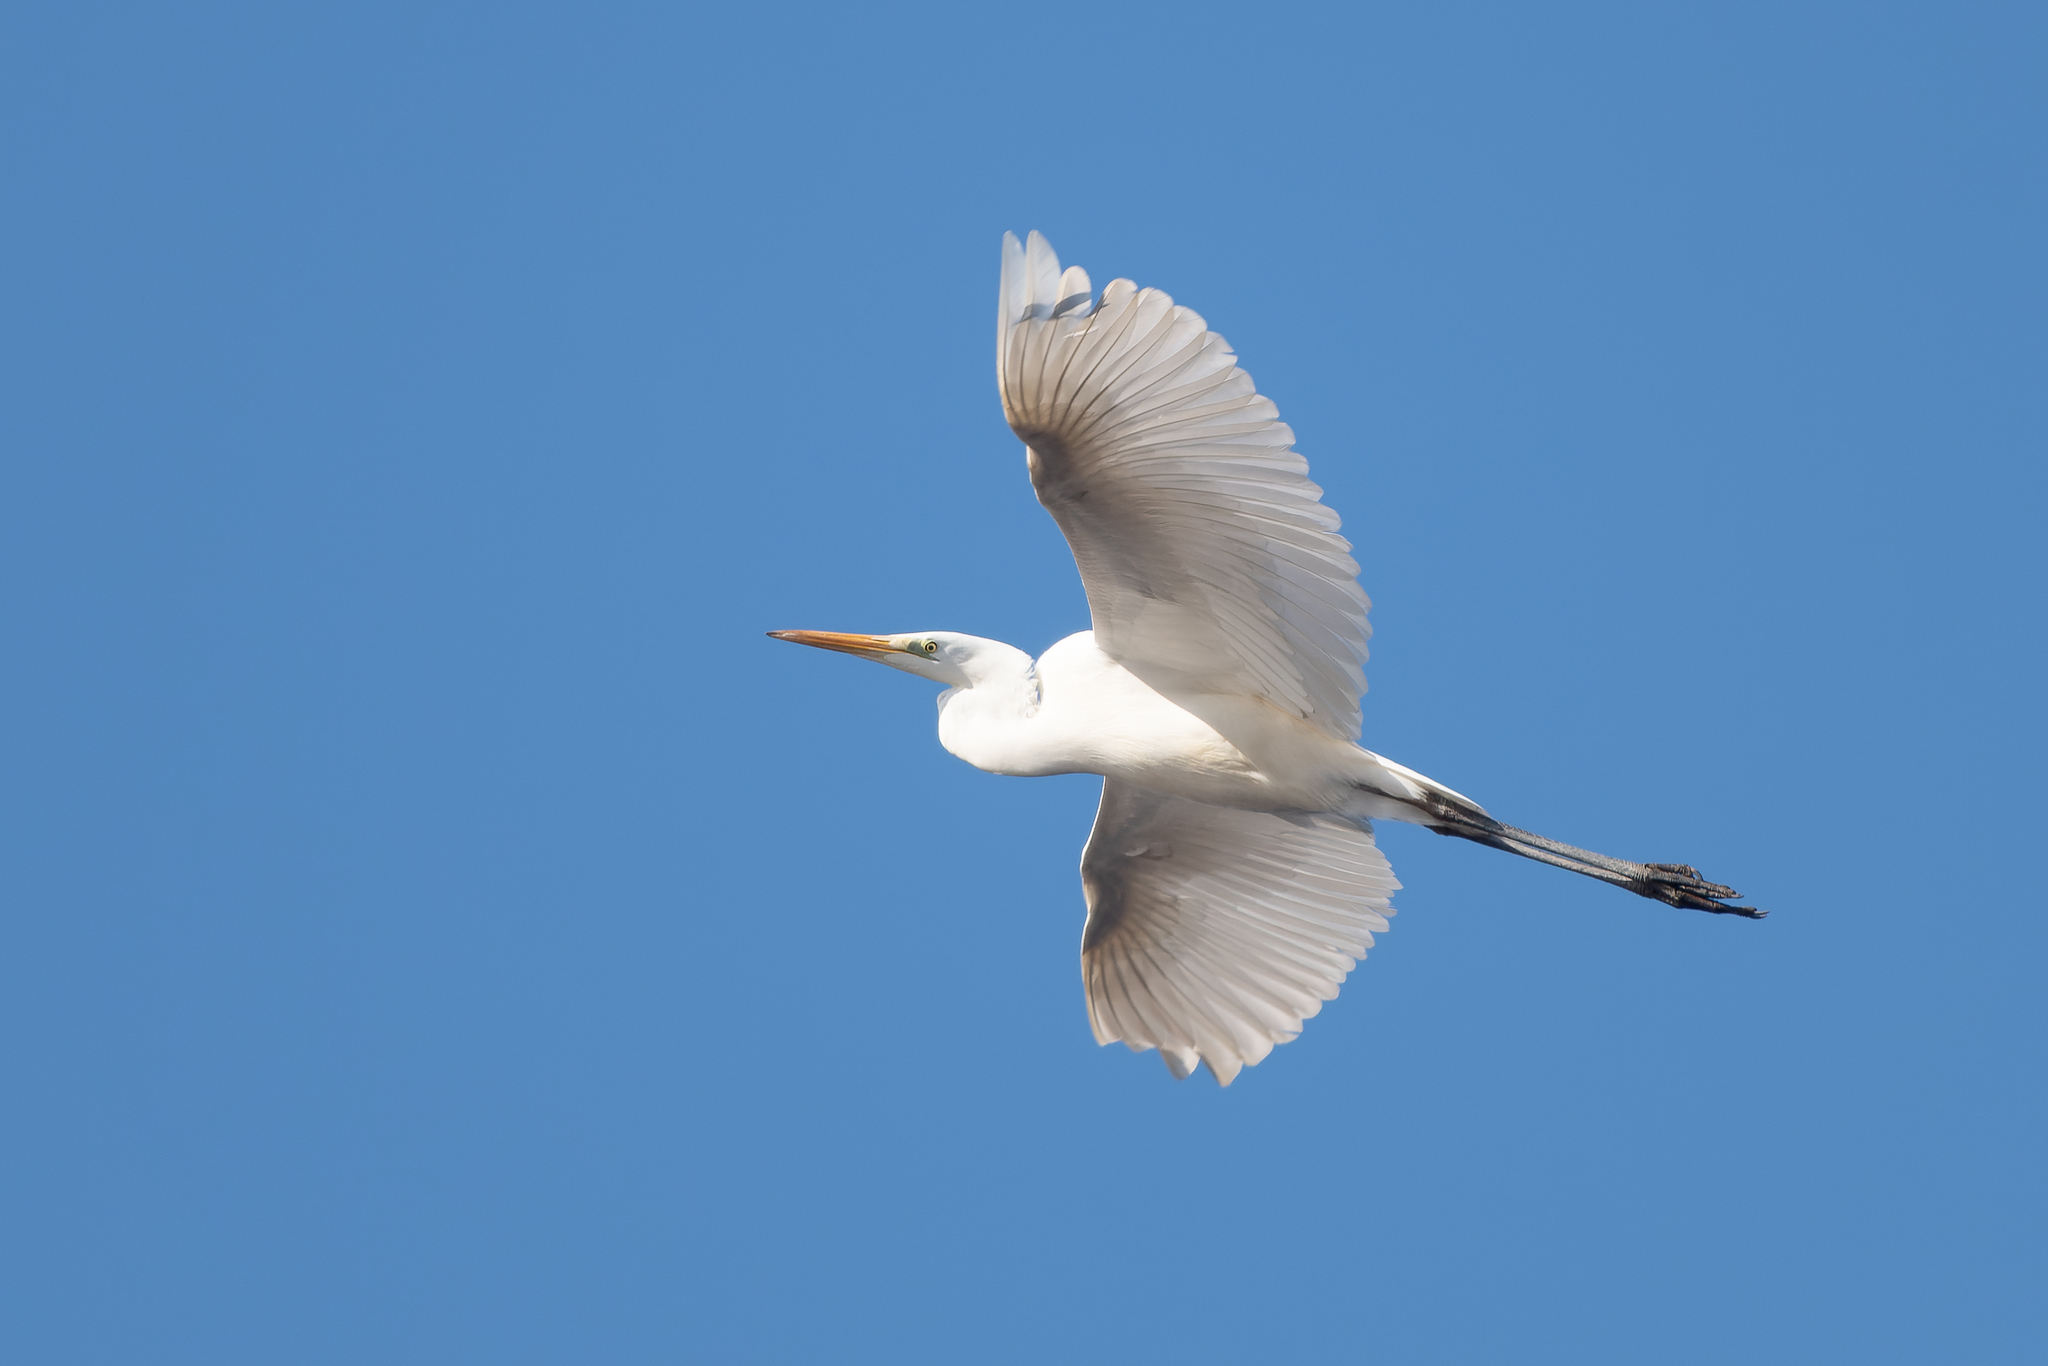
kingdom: Animalia
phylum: Chordata
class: Aves
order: Pelecaniformes
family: Ardeidae
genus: Ardea
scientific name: Ardea alba
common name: Great egret
